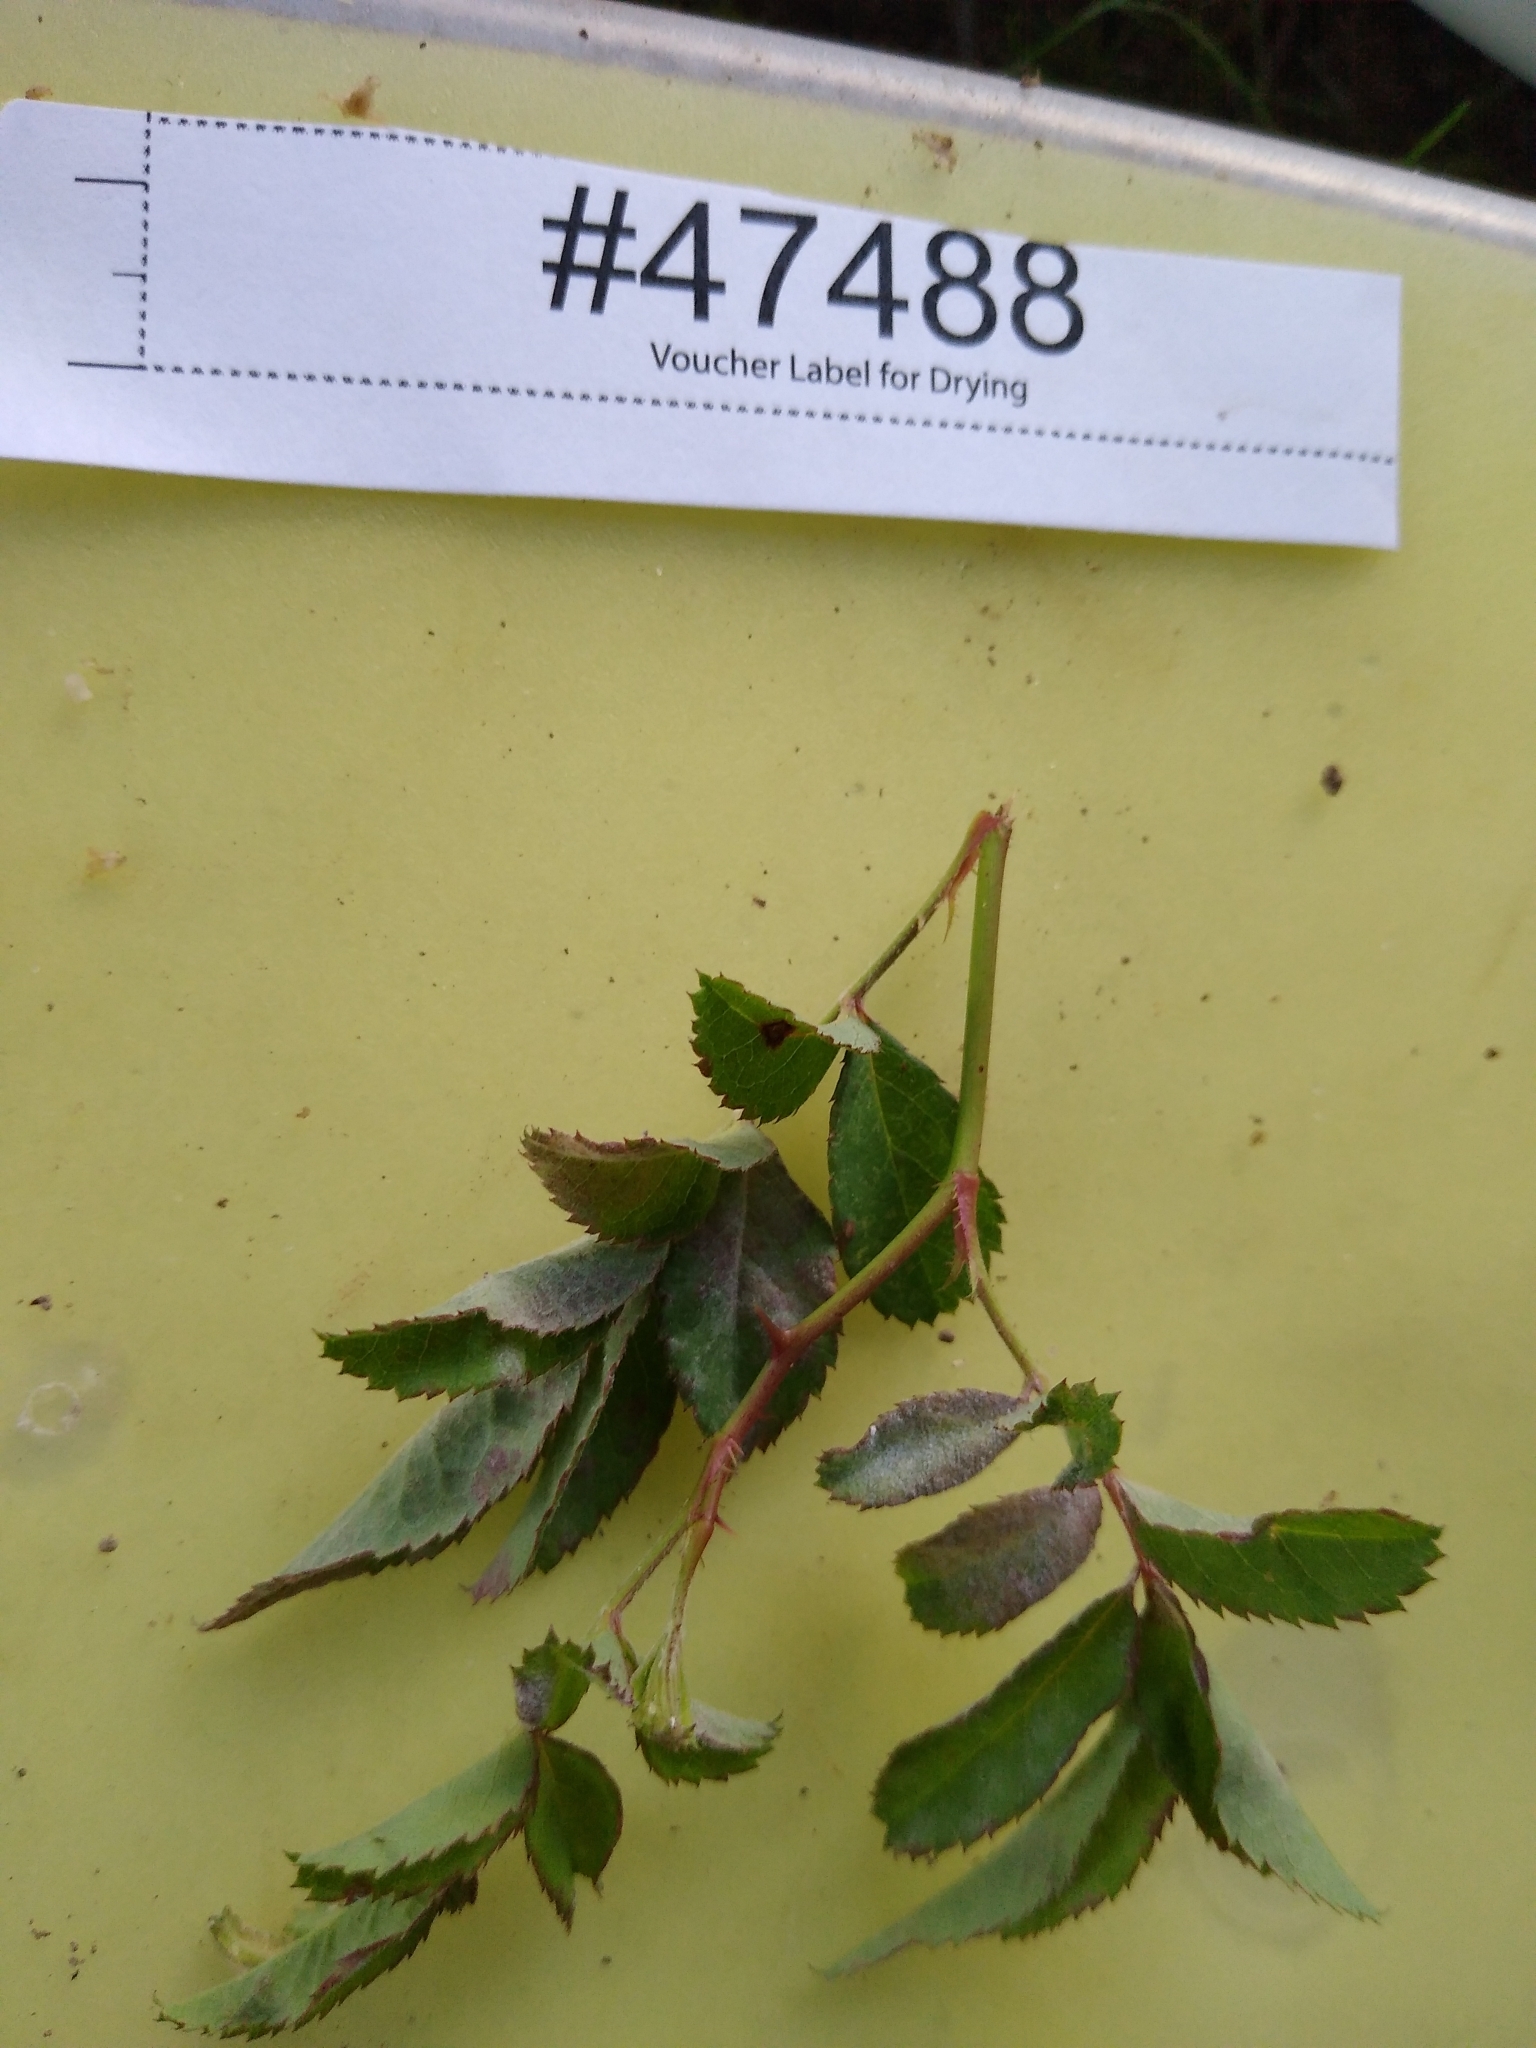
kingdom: Fungi
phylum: Ascomycota
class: Leotiomycetes
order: Helotiales
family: Erysiphaceae
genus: Podosphaera
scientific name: Podosphaera pannosa
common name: Rose mildew
